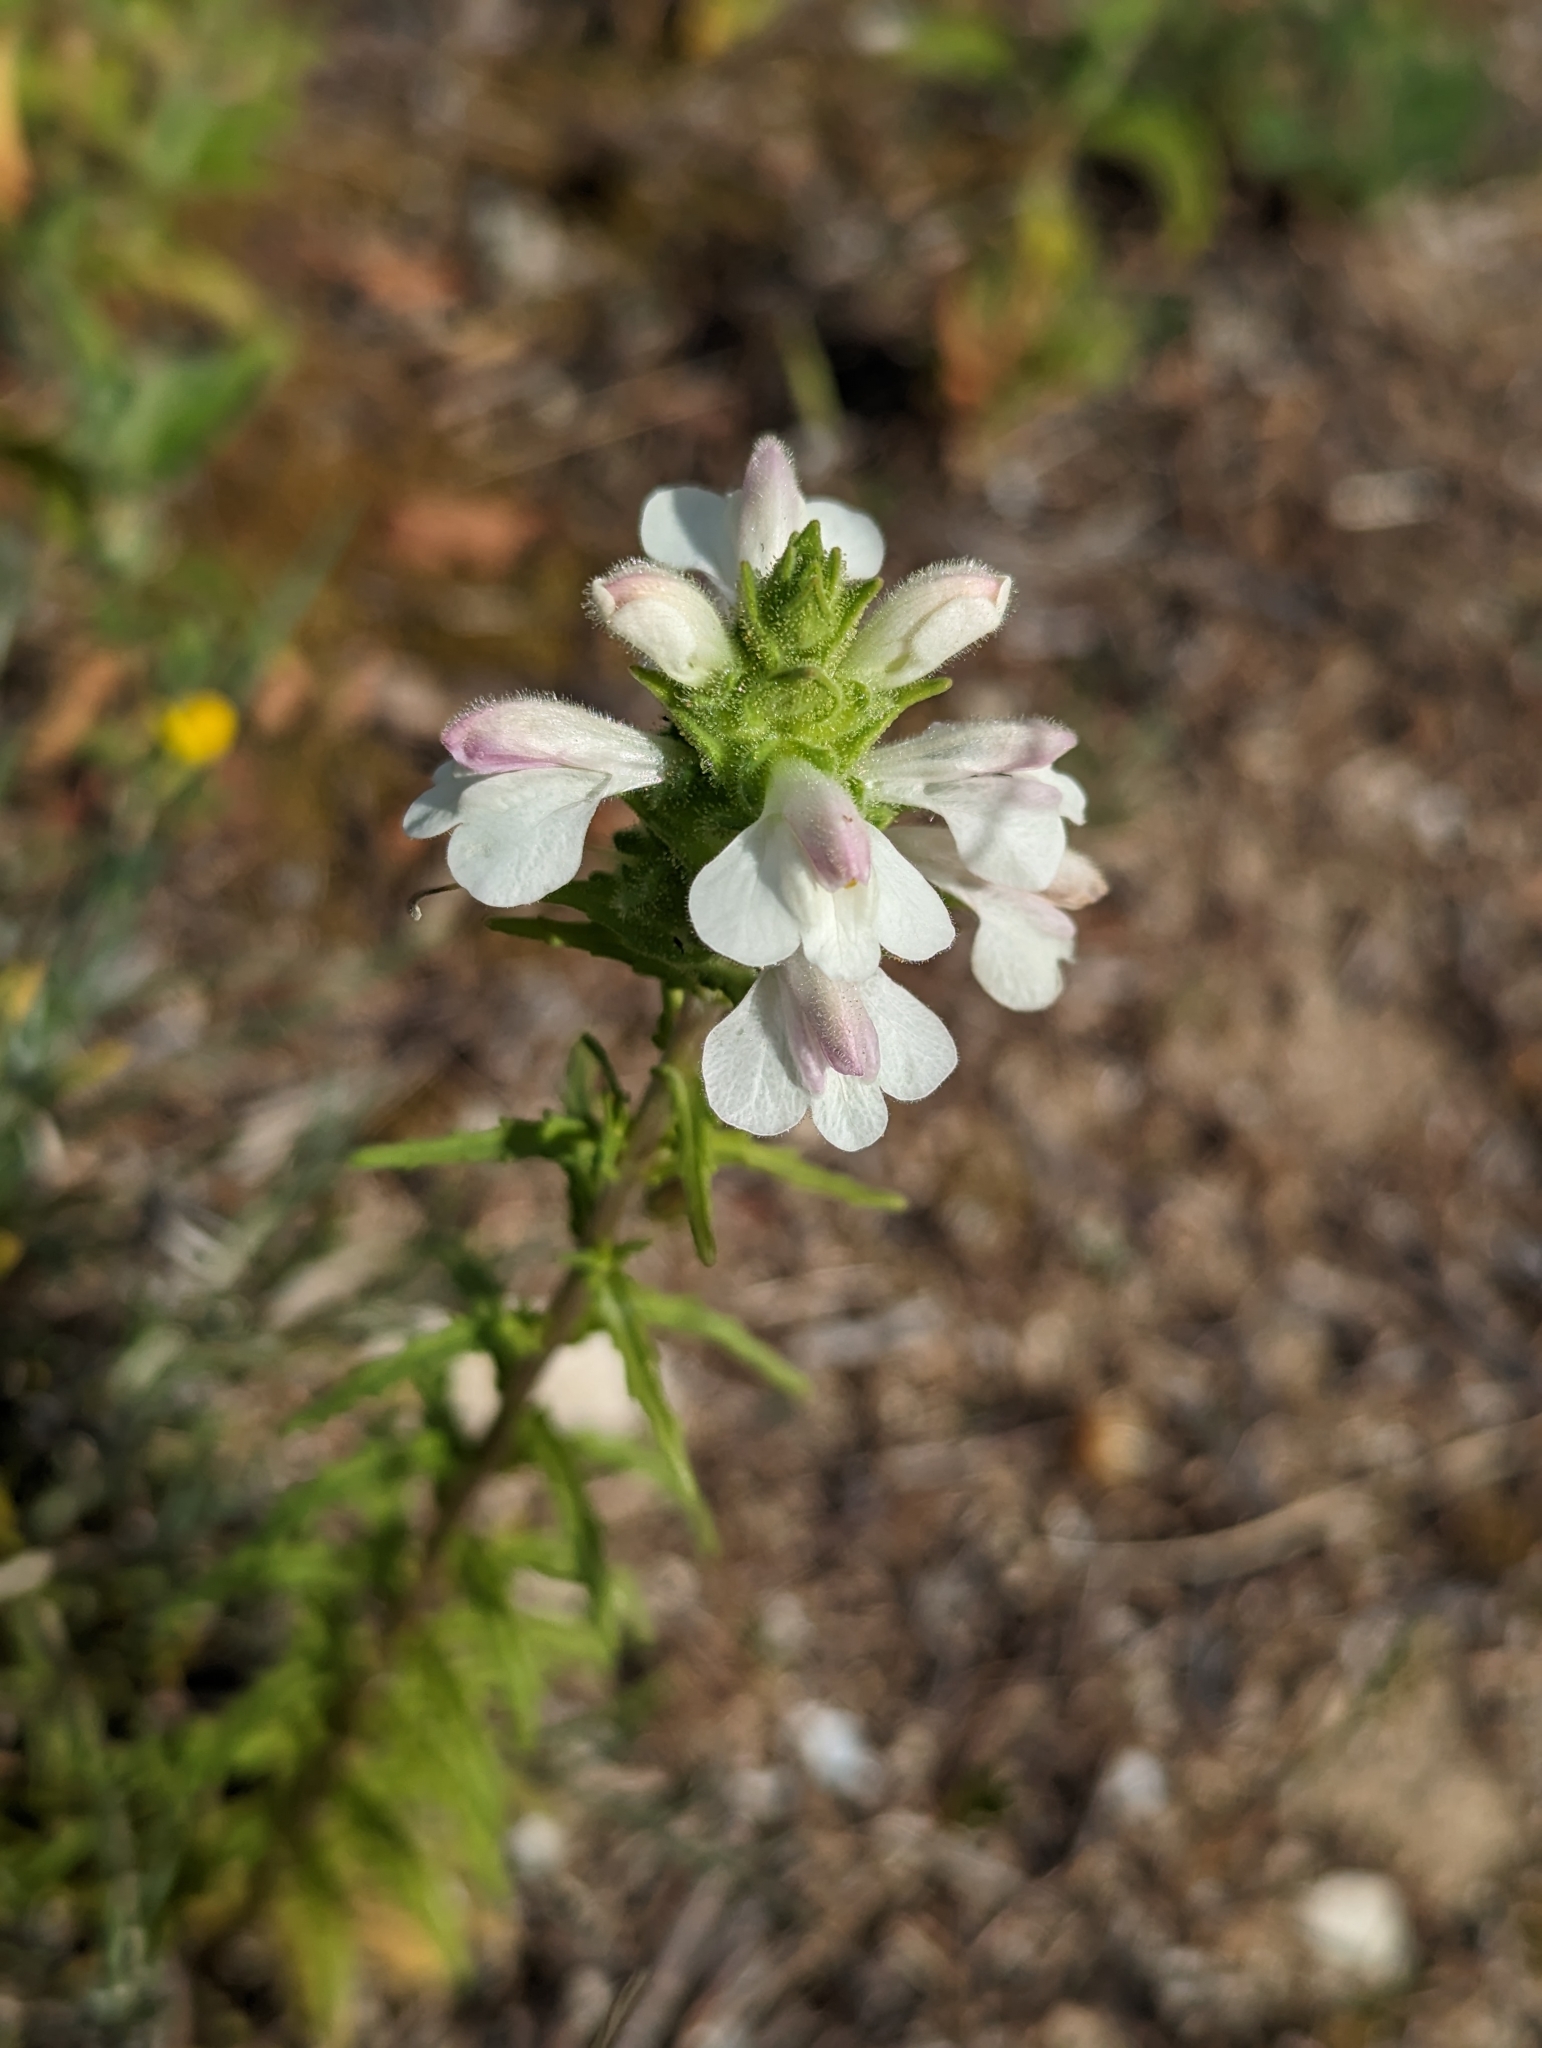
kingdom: Plantae
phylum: Tracheophyta
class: Magnoliopsida
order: Lamiales
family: Orobanchaceae
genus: Bellardia
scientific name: Bellardia trixago
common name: Mediterranean lineseed
